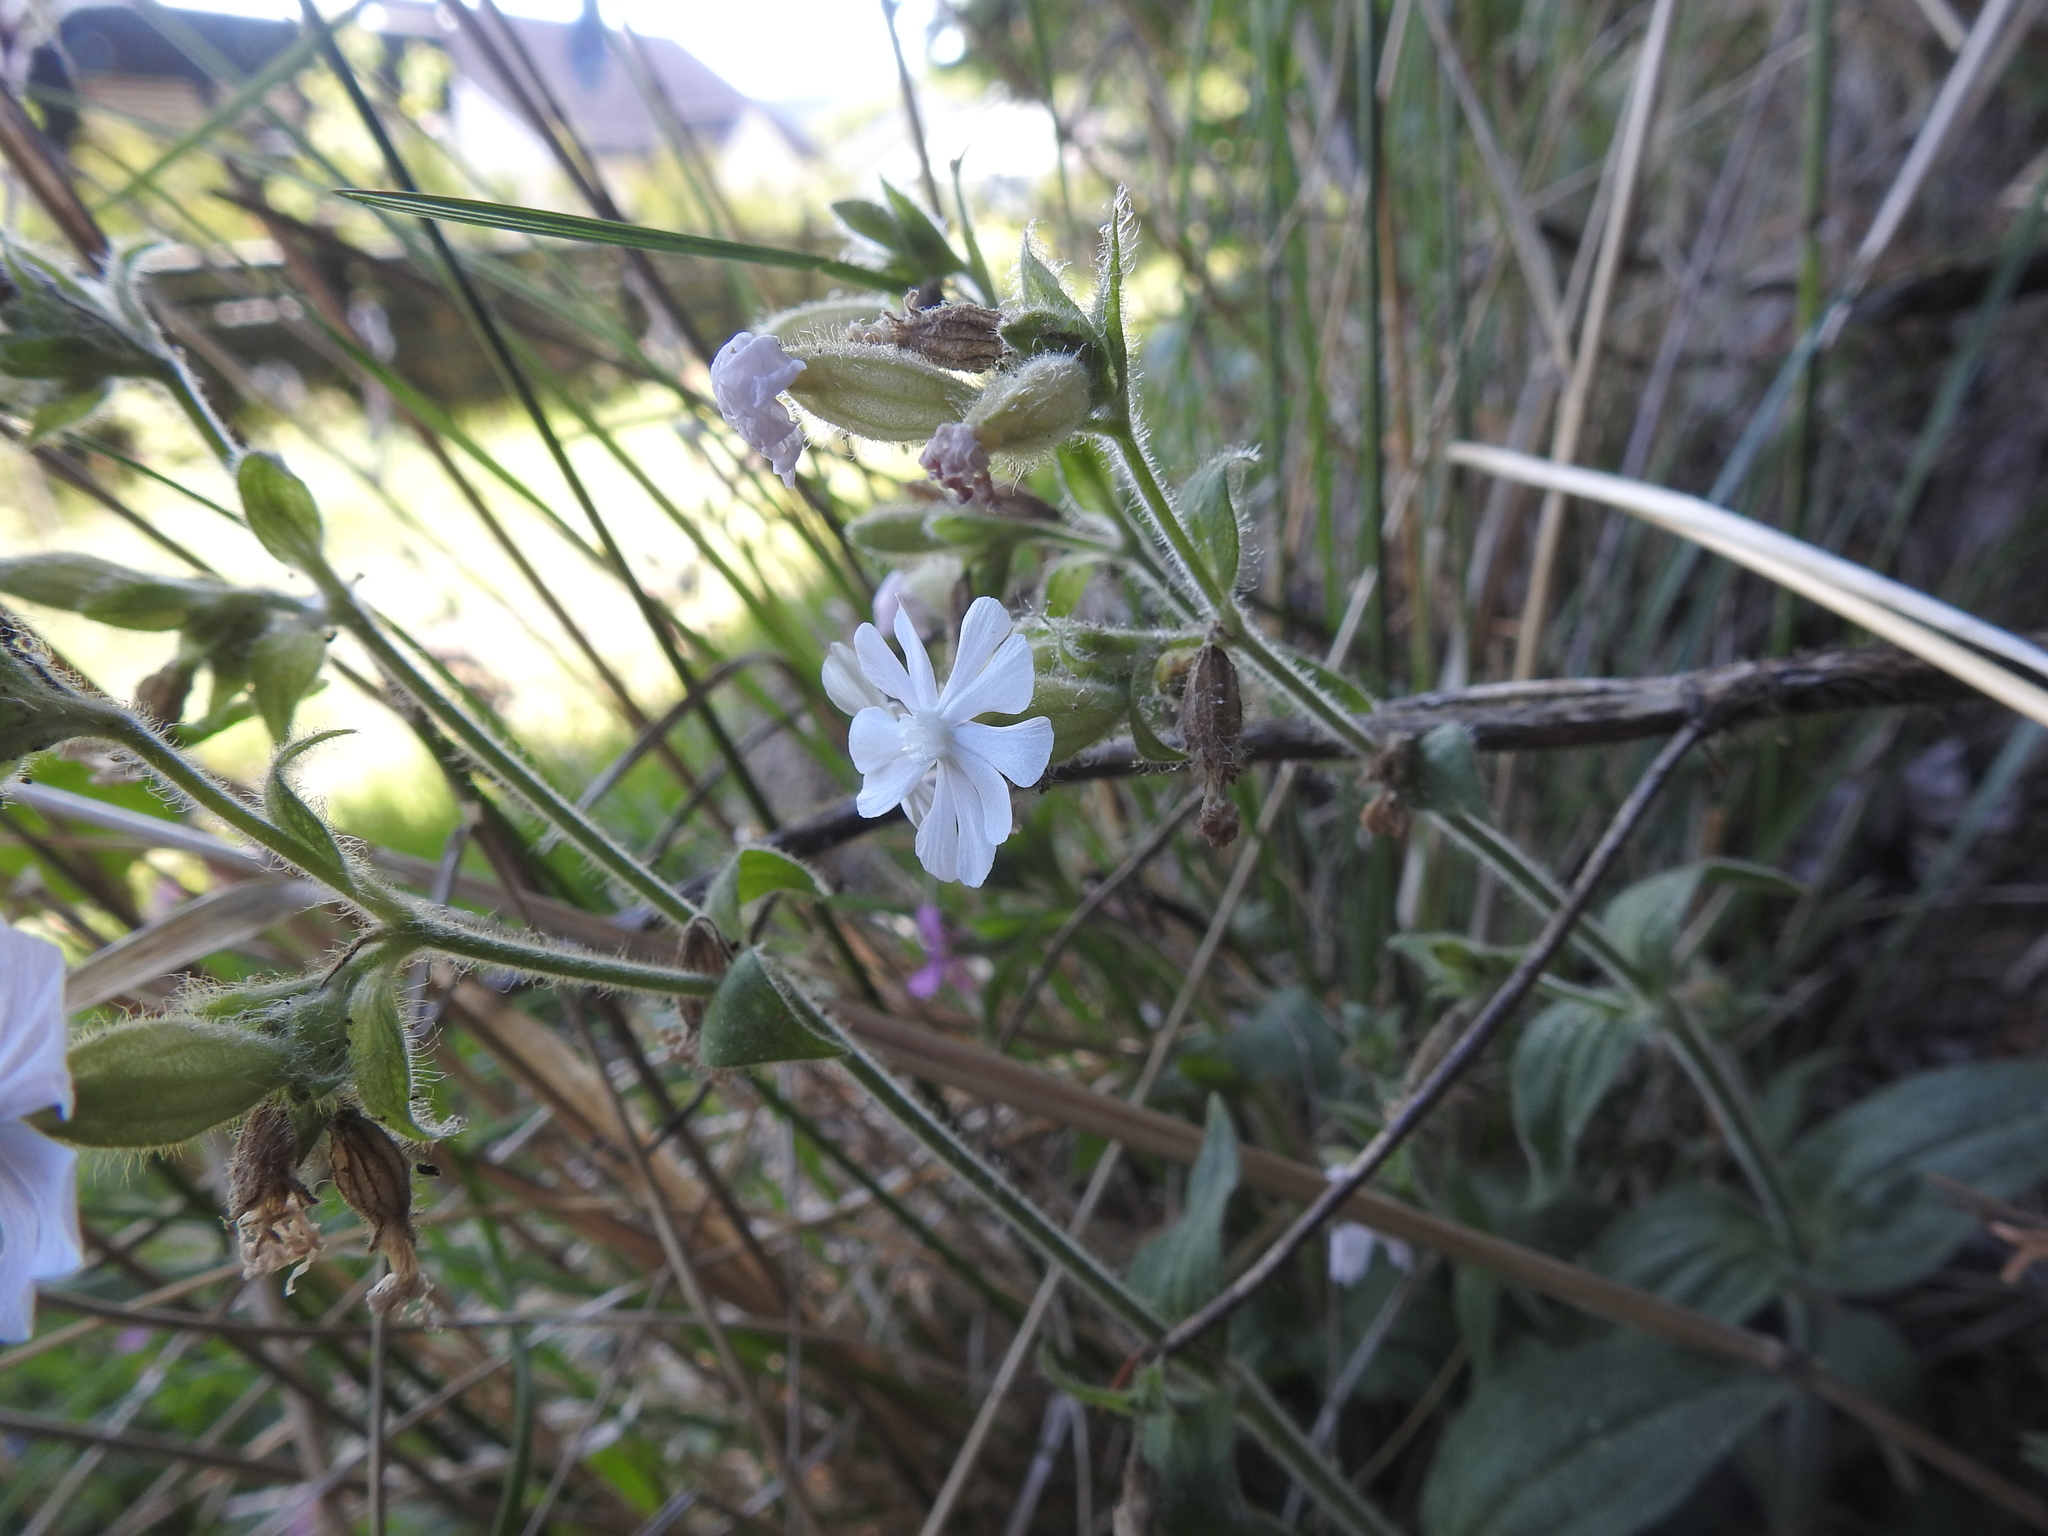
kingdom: Plantae
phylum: Tracheophyta
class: Magnoliopsida
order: Caryophyllales
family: Caryophyllaceae
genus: Silene
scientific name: Silene latifolia
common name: White campion
